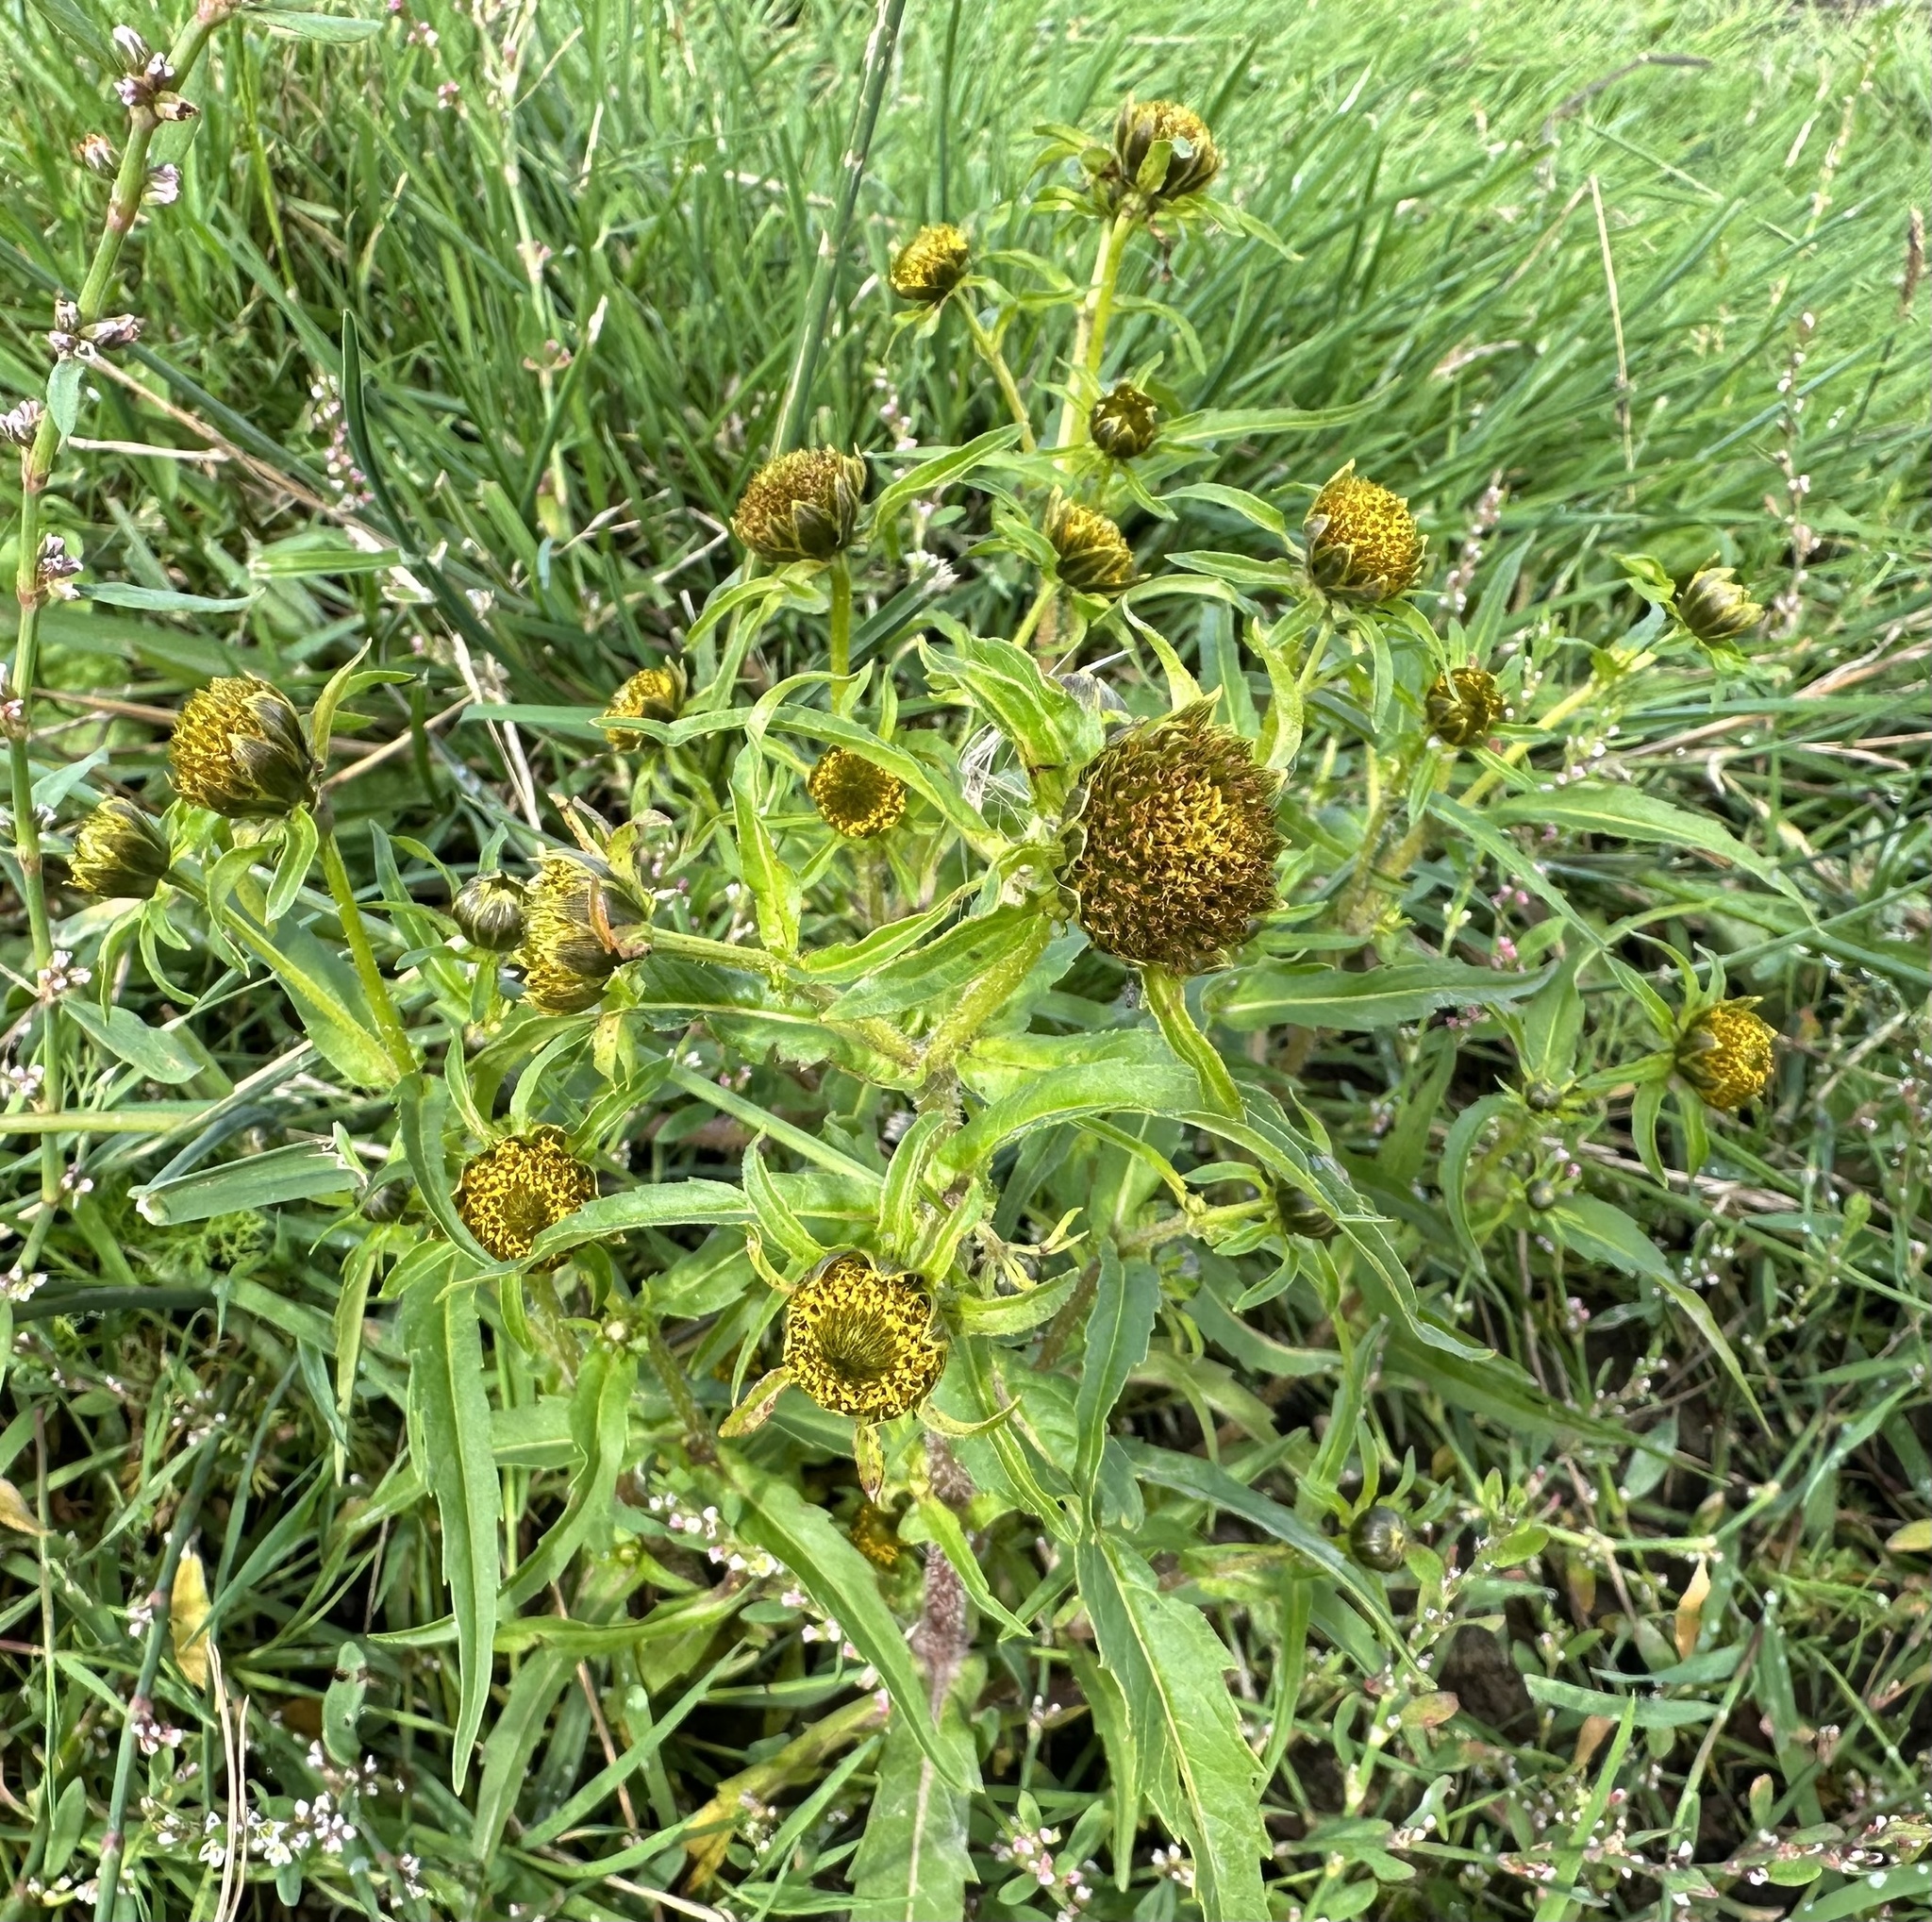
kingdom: Plantae
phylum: Tracheophyta
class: Magnoliopsida
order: Asterales
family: Asteraceae
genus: Bidens
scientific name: Bidens cernua
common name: Nodding bur-marigold
